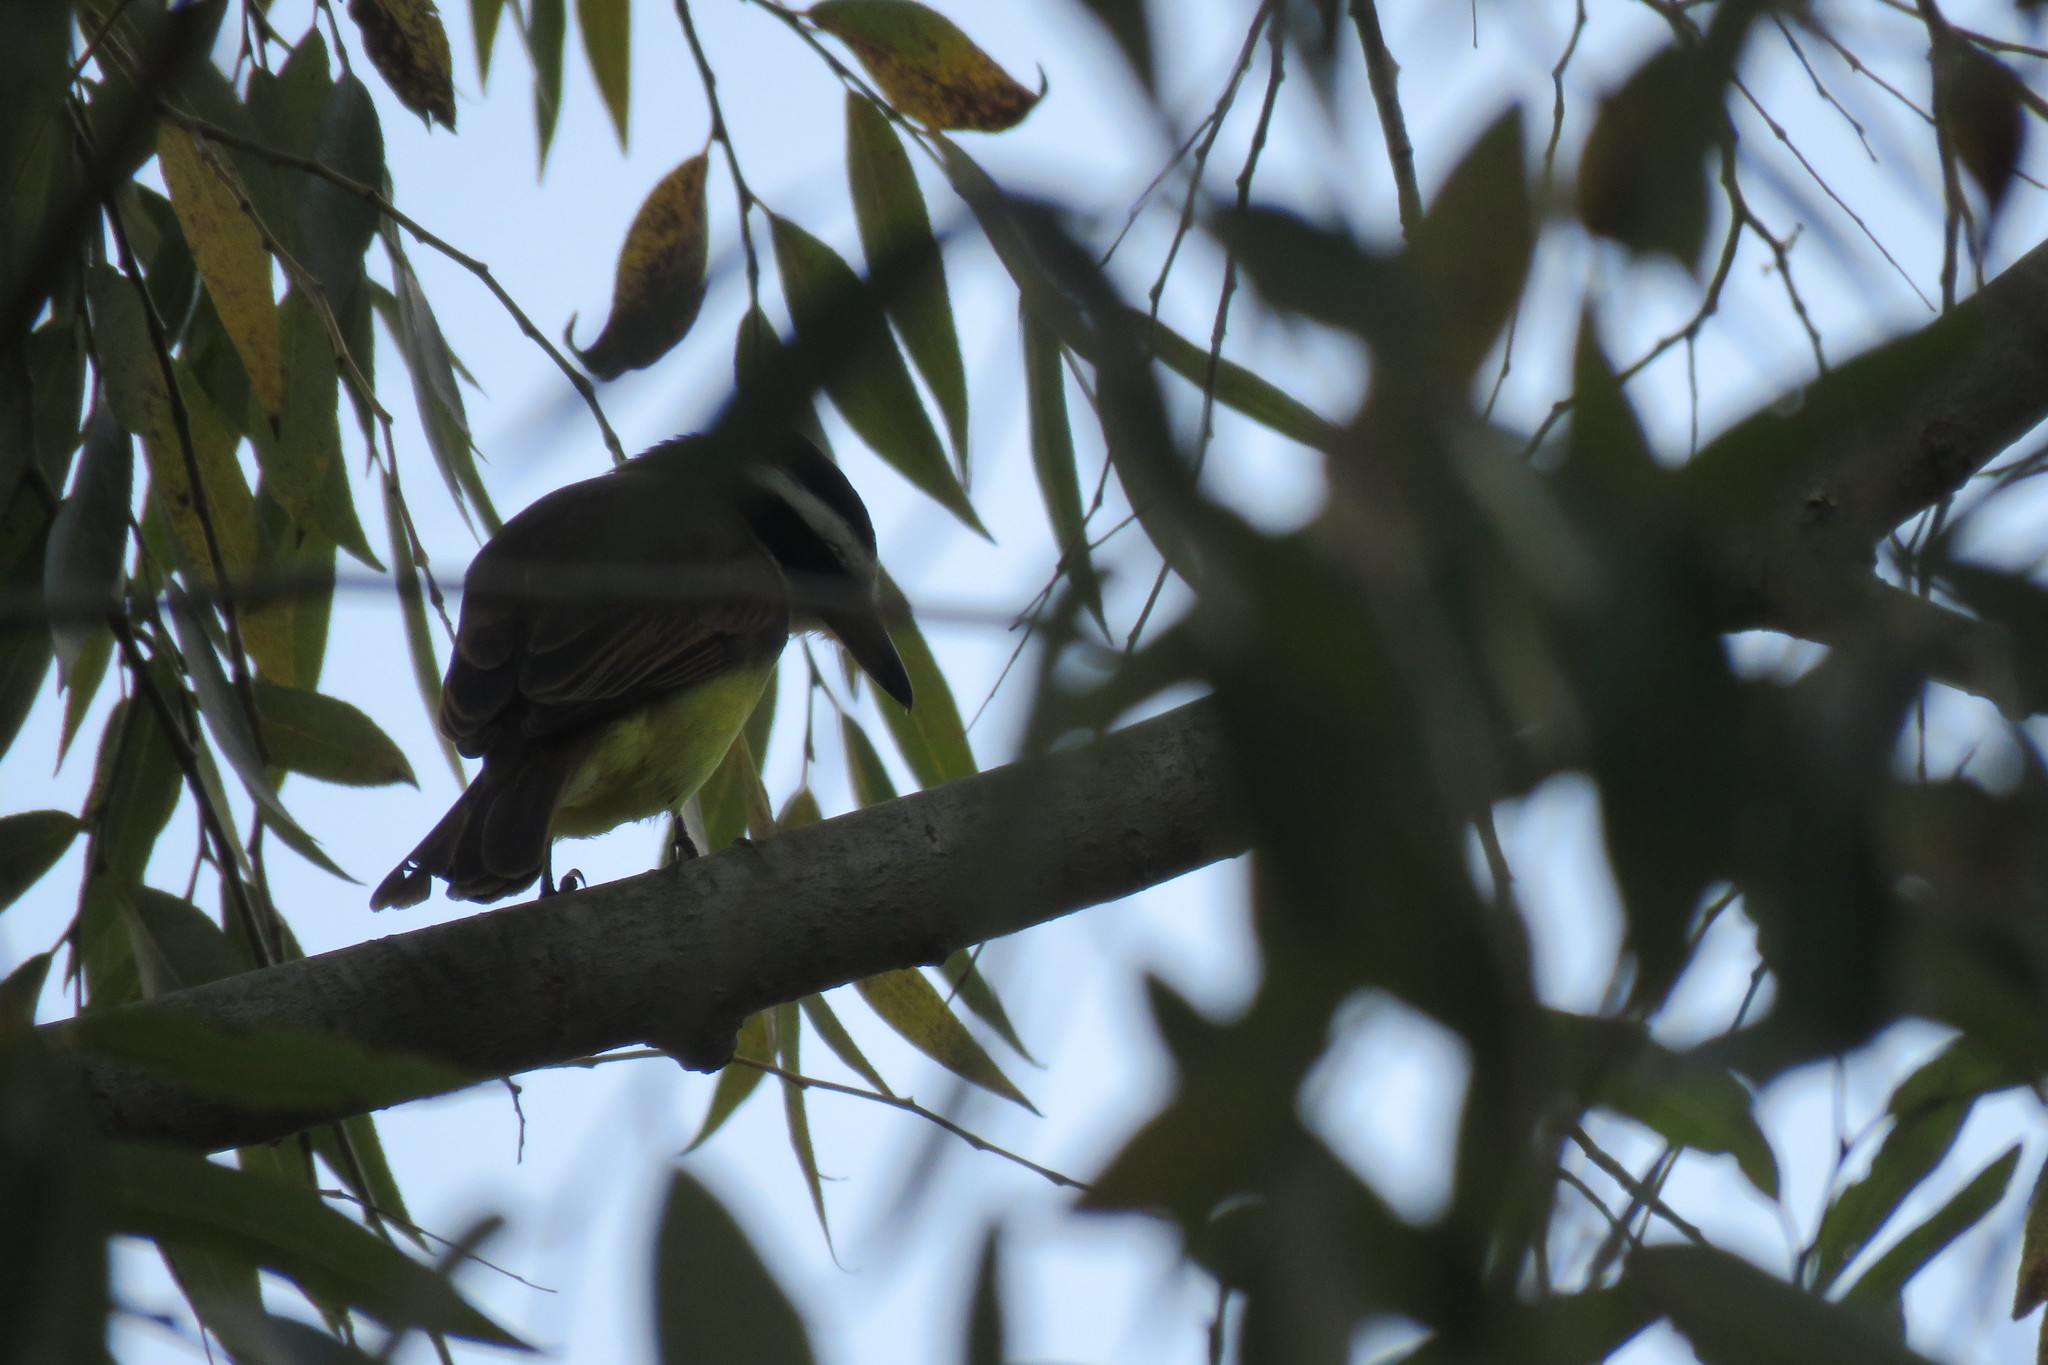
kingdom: Animalia
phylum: Chordata
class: Aves
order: Passeriformes
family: Tyrannidae
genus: Pitangus
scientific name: Pitangus sulphuratus
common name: Great kiskadee
